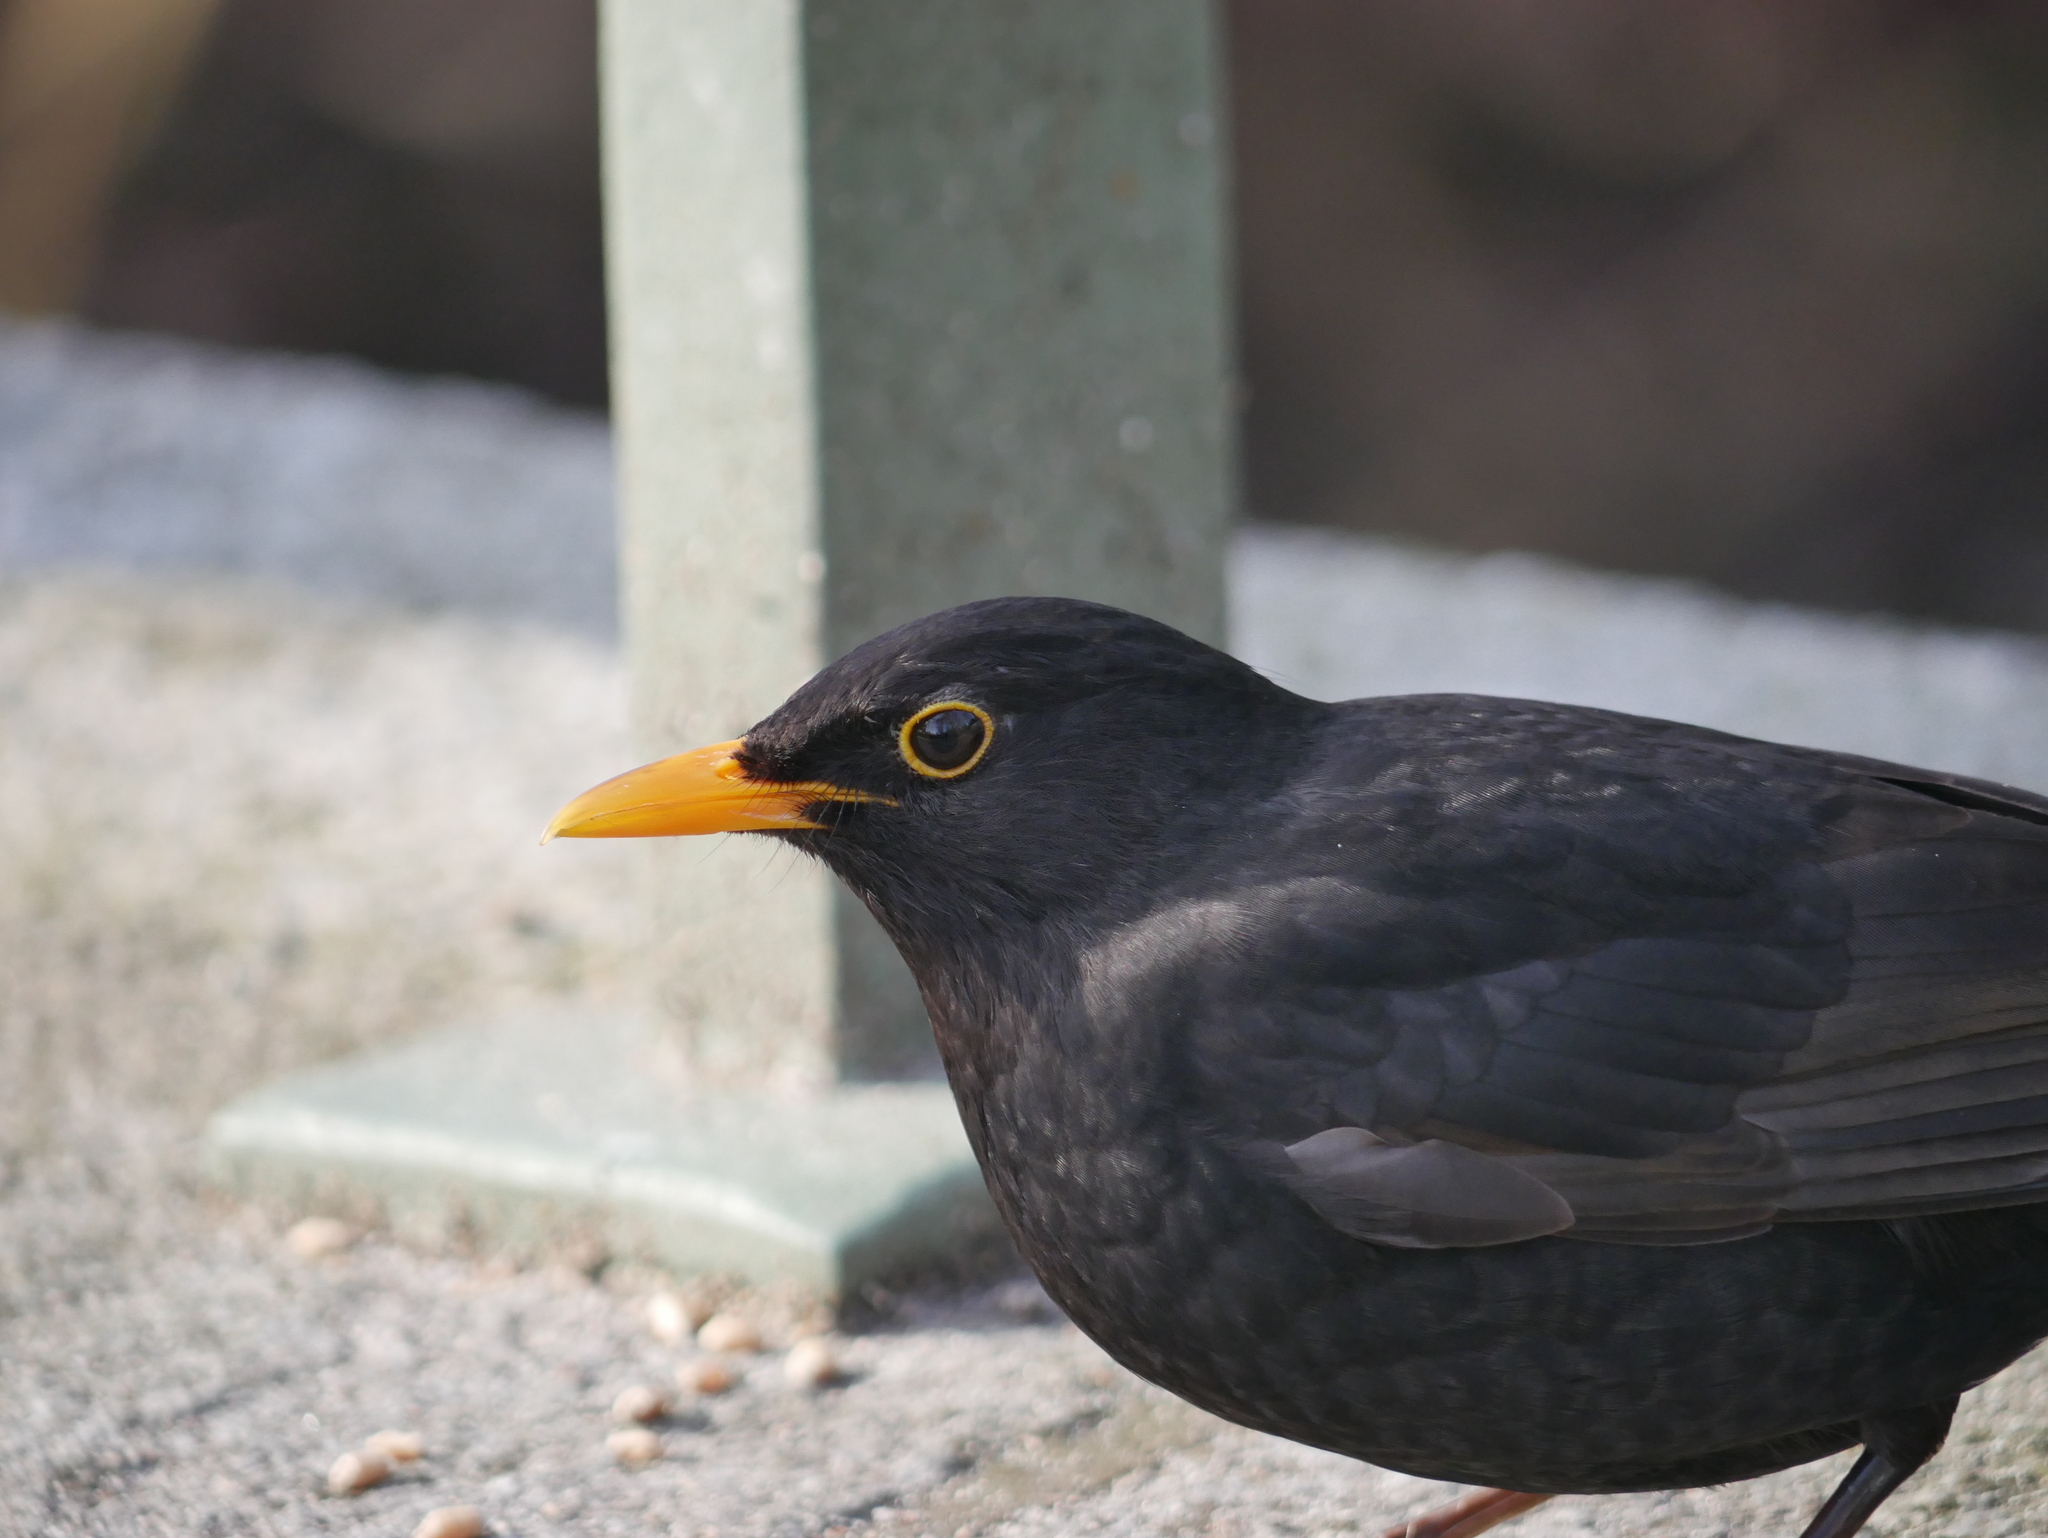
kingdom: Animalia
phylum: Chordata
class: Aves
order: Passeriformes
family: Turdidae
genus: Turdus
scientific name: Turdus merula
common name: Common blackbird
